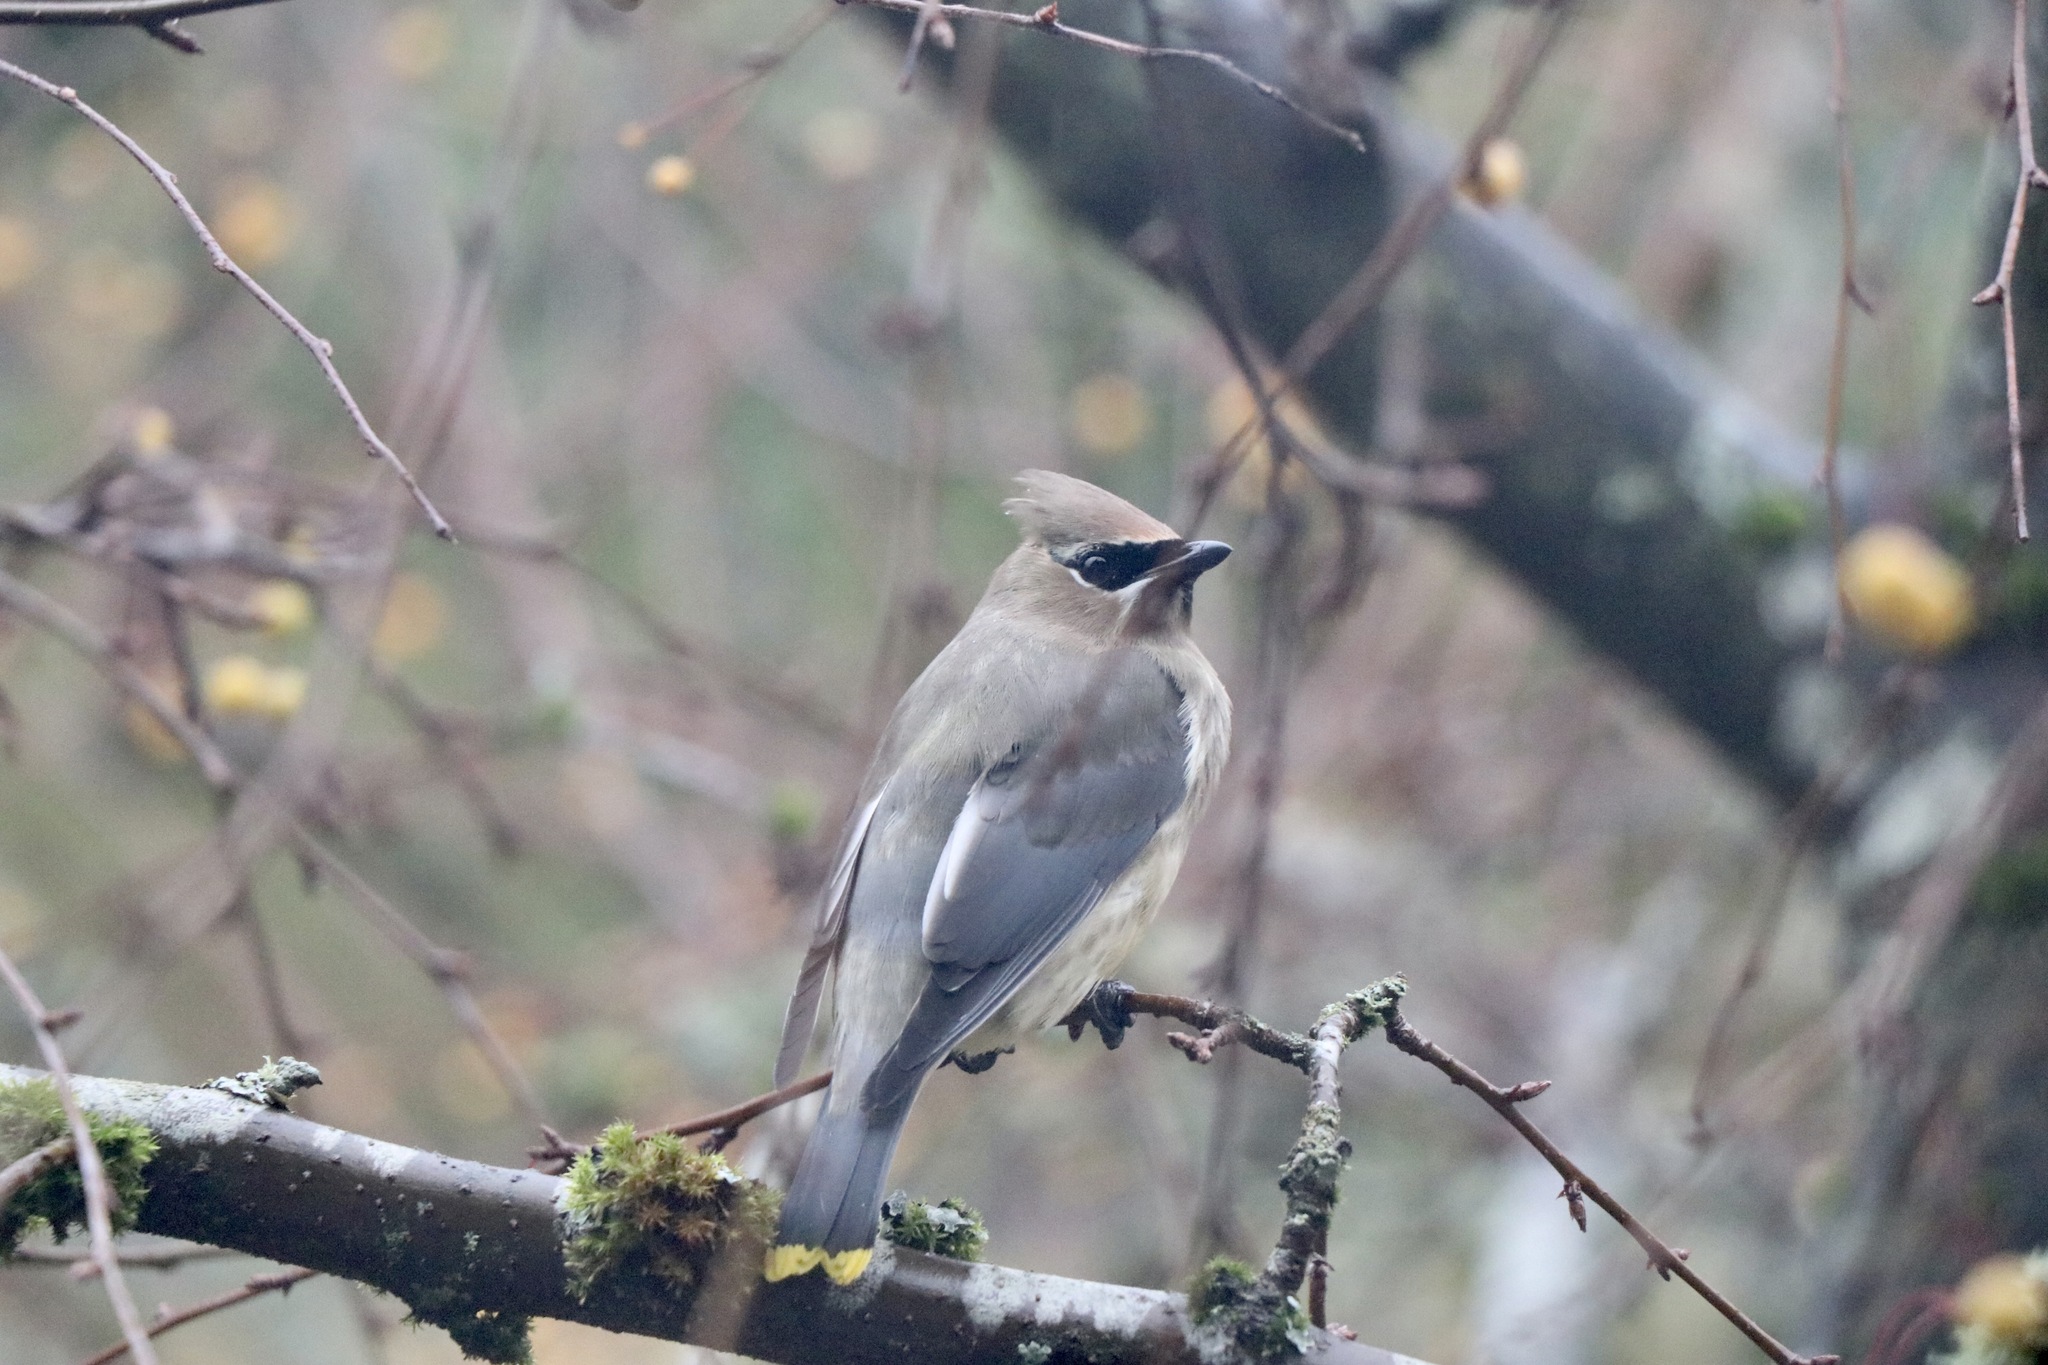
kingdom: Animalia
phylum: Chordata
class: Aves
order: Passeriformes
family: Bombycillidae
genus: Bombycilla
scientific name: Bombycilla cedrorum
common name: Cedar waxwing
